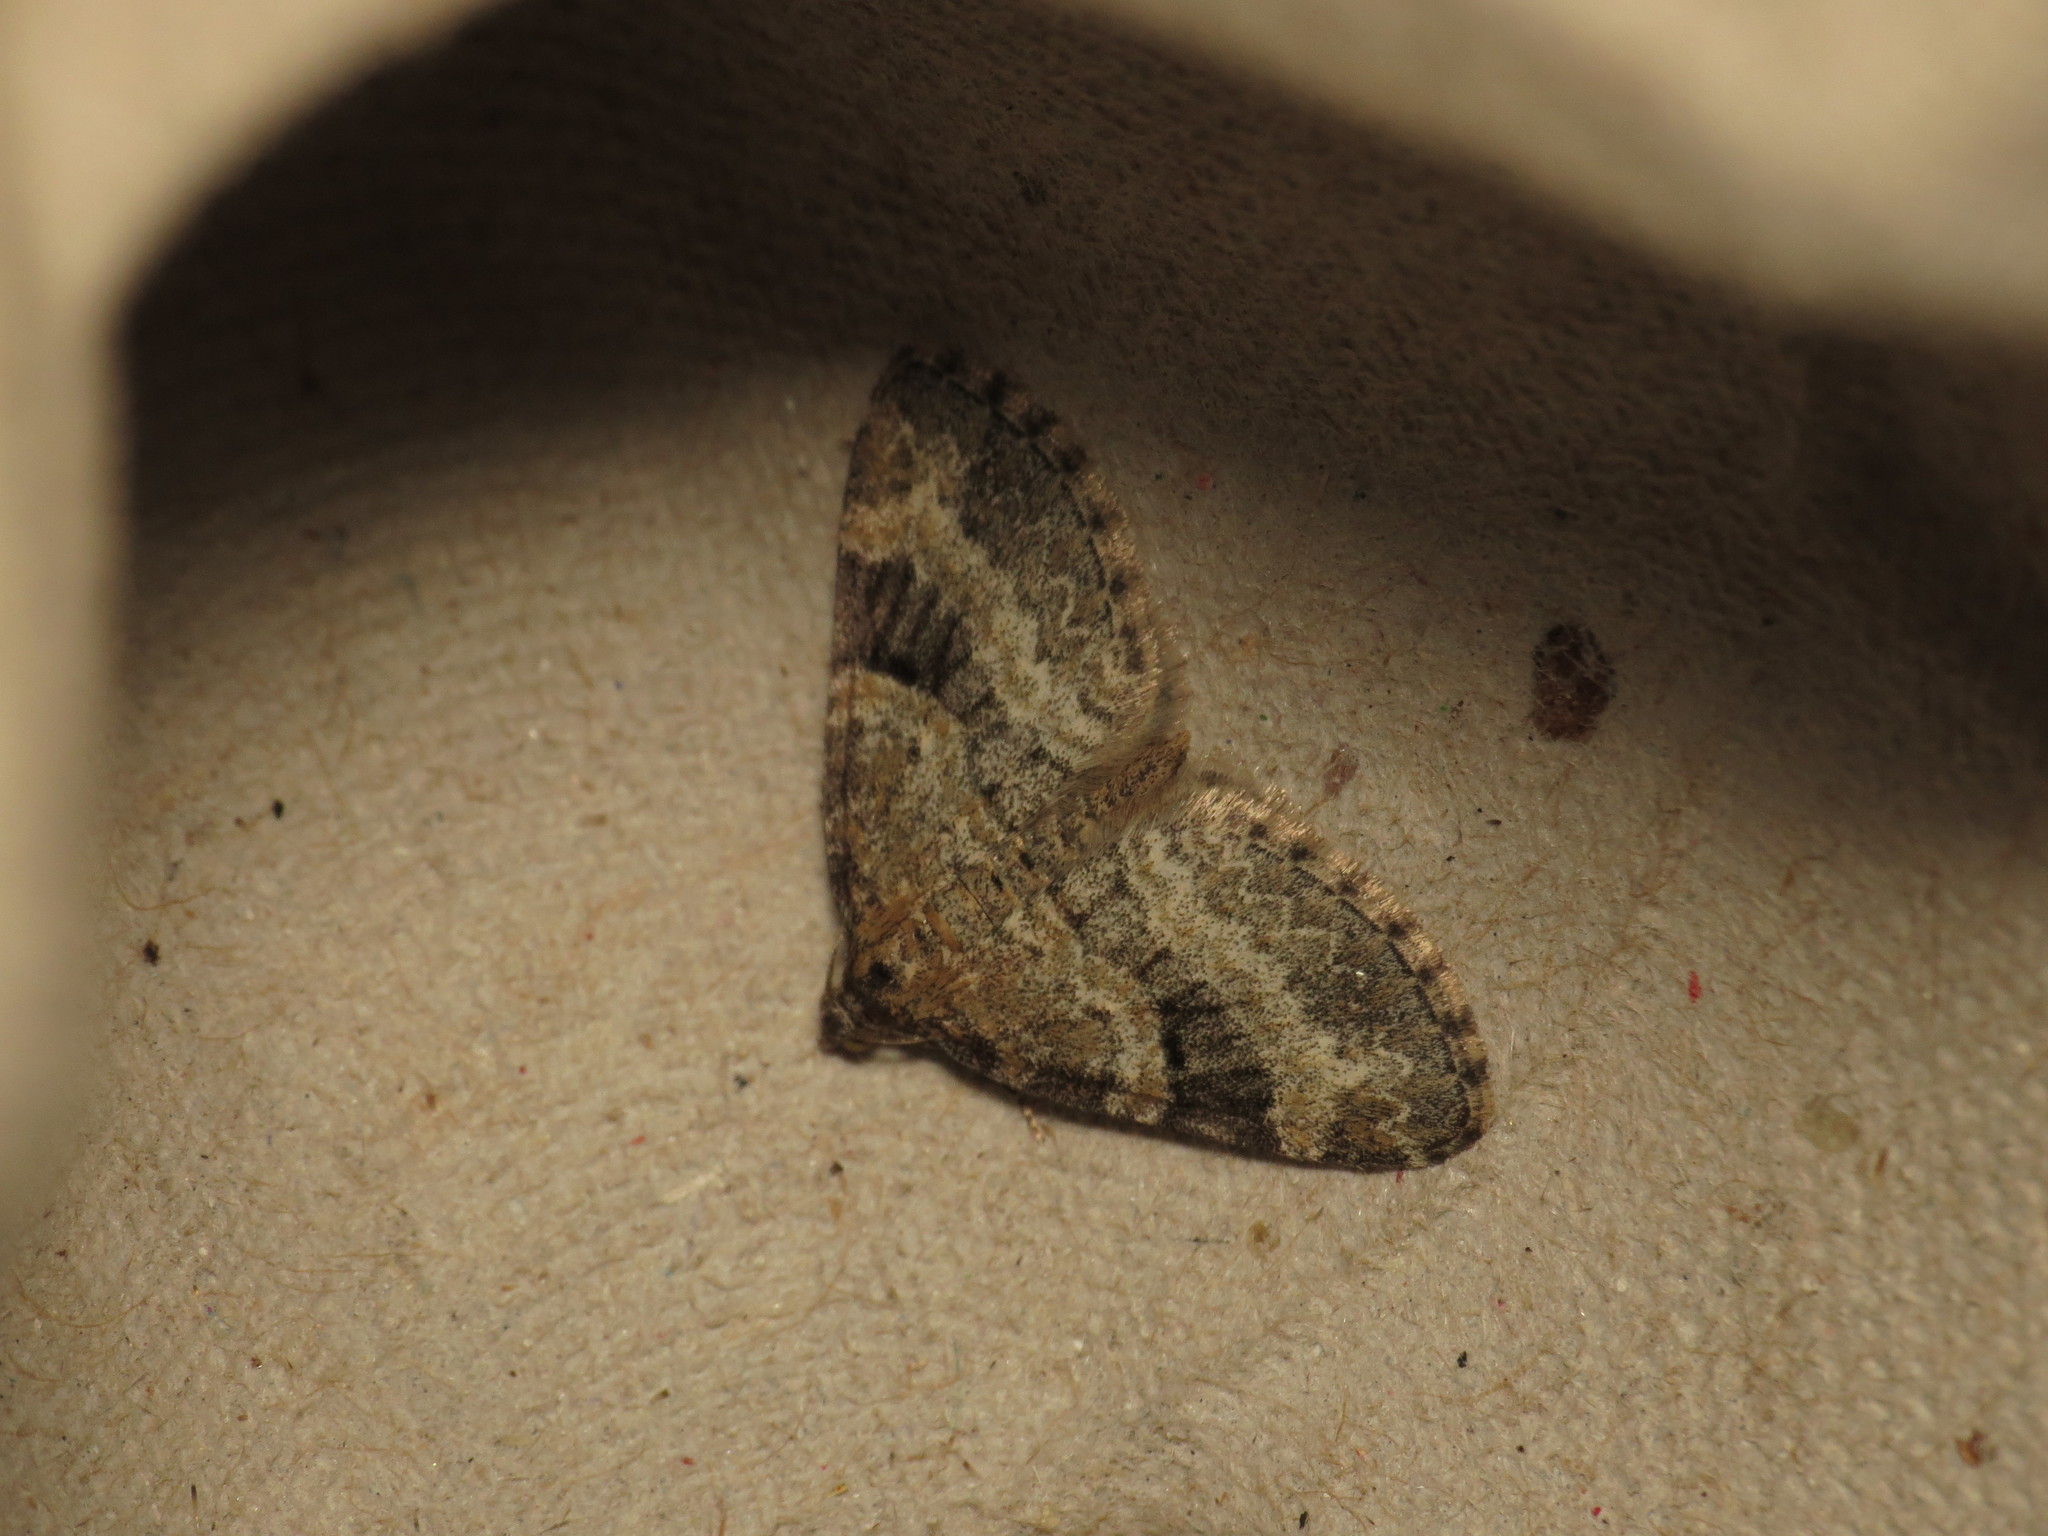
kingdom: Animalia
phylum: Arthropoda
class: Insecta
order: Lepidoptera
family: Geometridae
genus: Pterapherapteryx
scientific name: Pterapherapteryx sexalata
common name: Small seraphim
